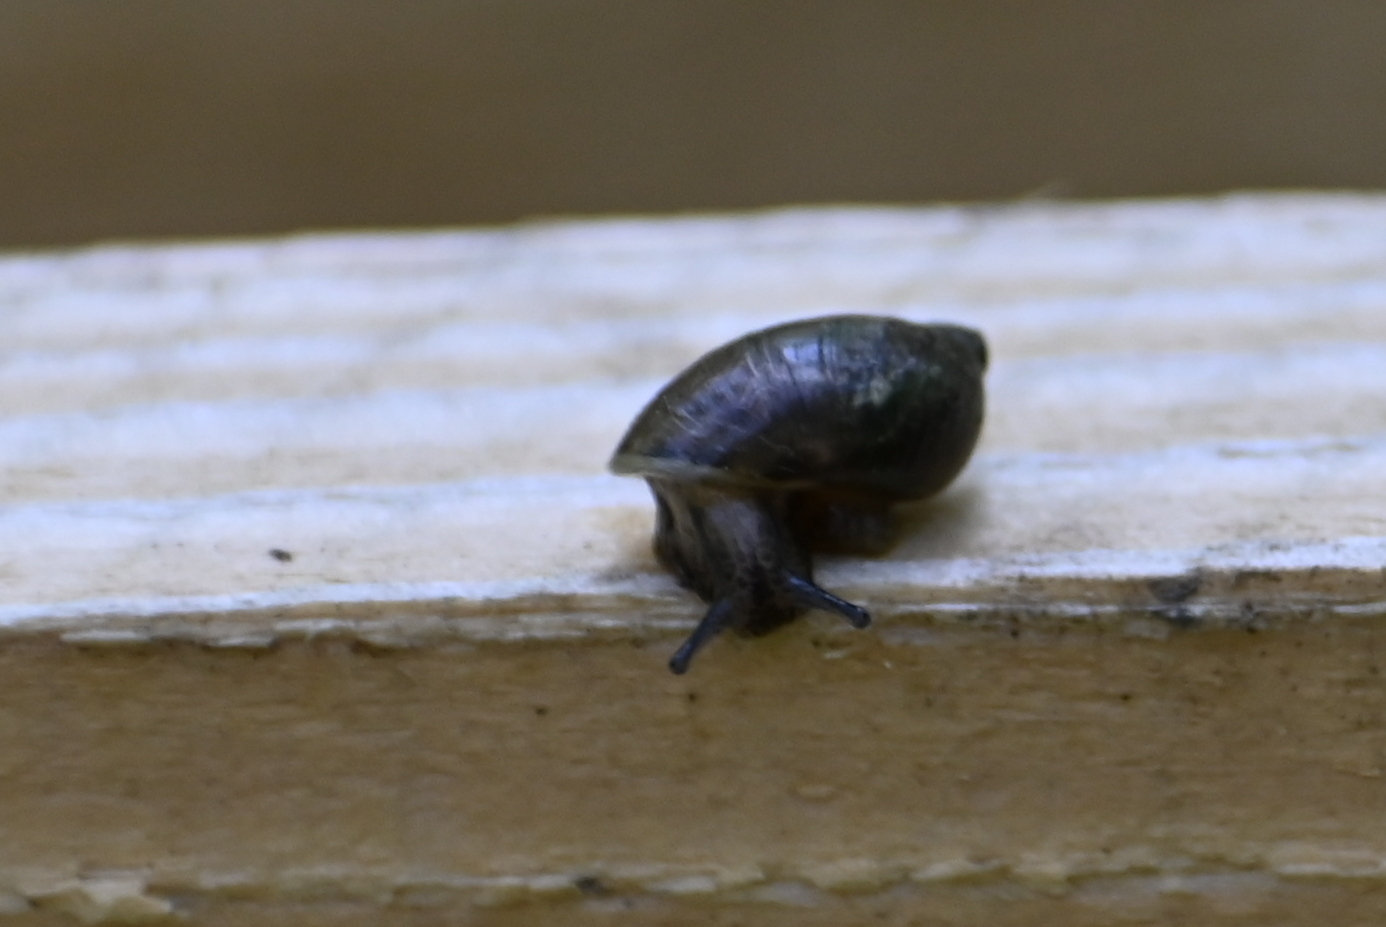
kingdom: Animalia
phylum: Mollusca
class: Gastropoda
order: Stylommatophora
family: Succineidae
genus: Succinea
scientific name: Succinea putris
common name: European ambersnail
